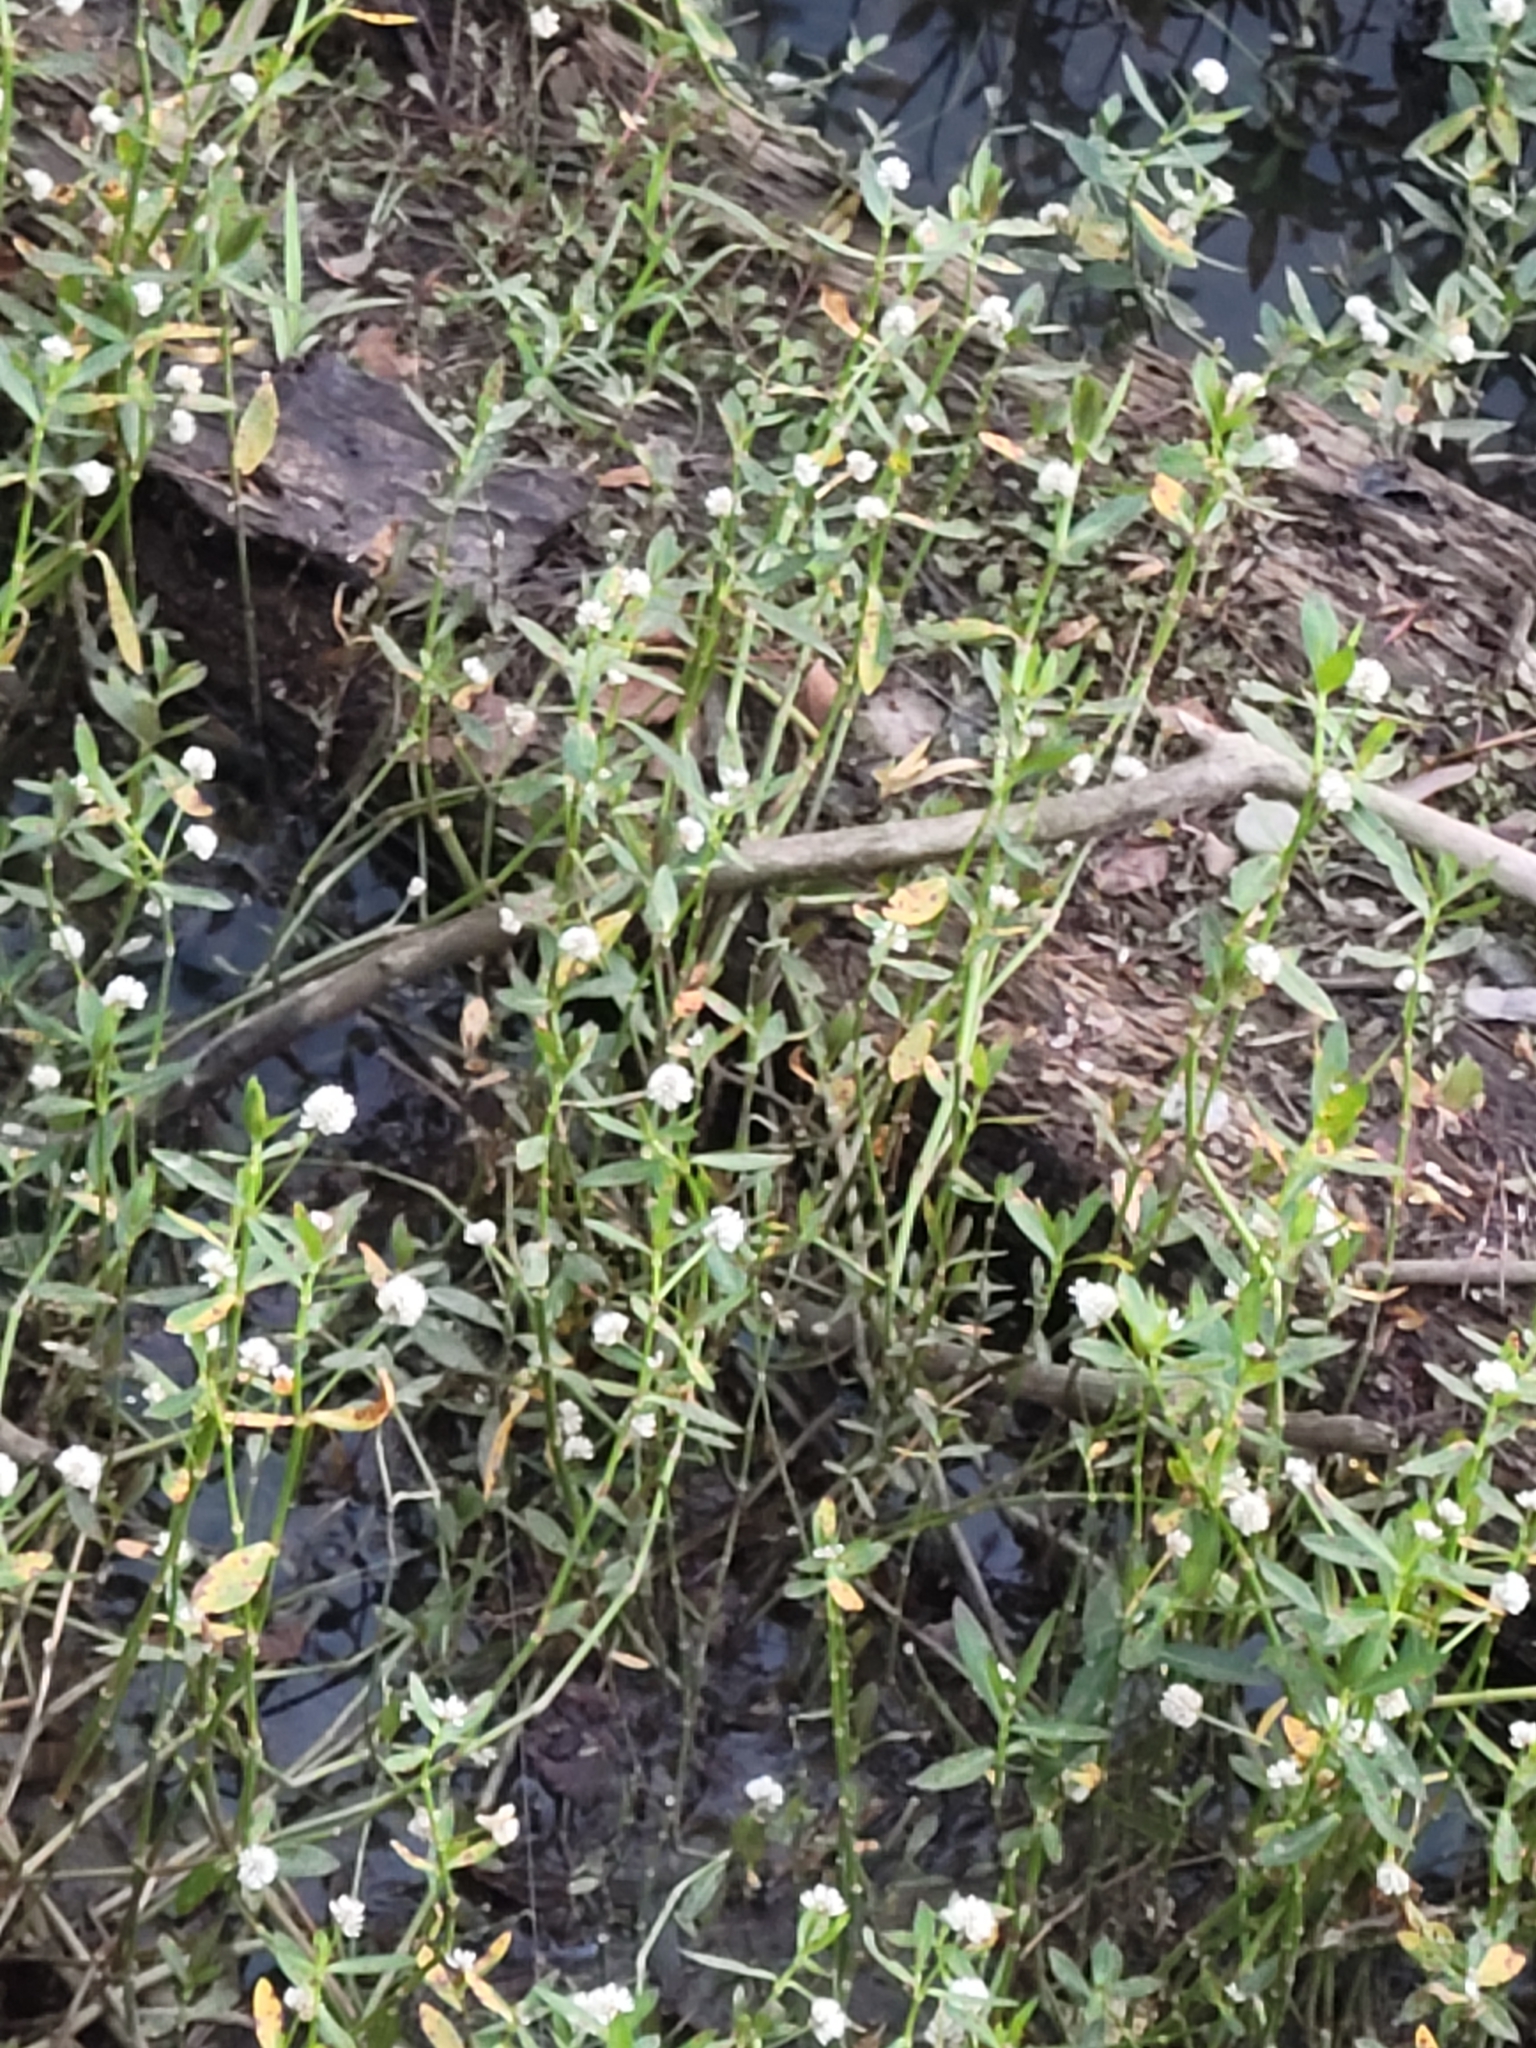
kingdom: Plantae
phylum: Tracheophyta
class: Magnoliopsida
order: Caryophyllales
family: Amaranthaceae
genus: Alternanthera
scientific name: Alternanthera philoxeroides
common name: Alligatorweed
